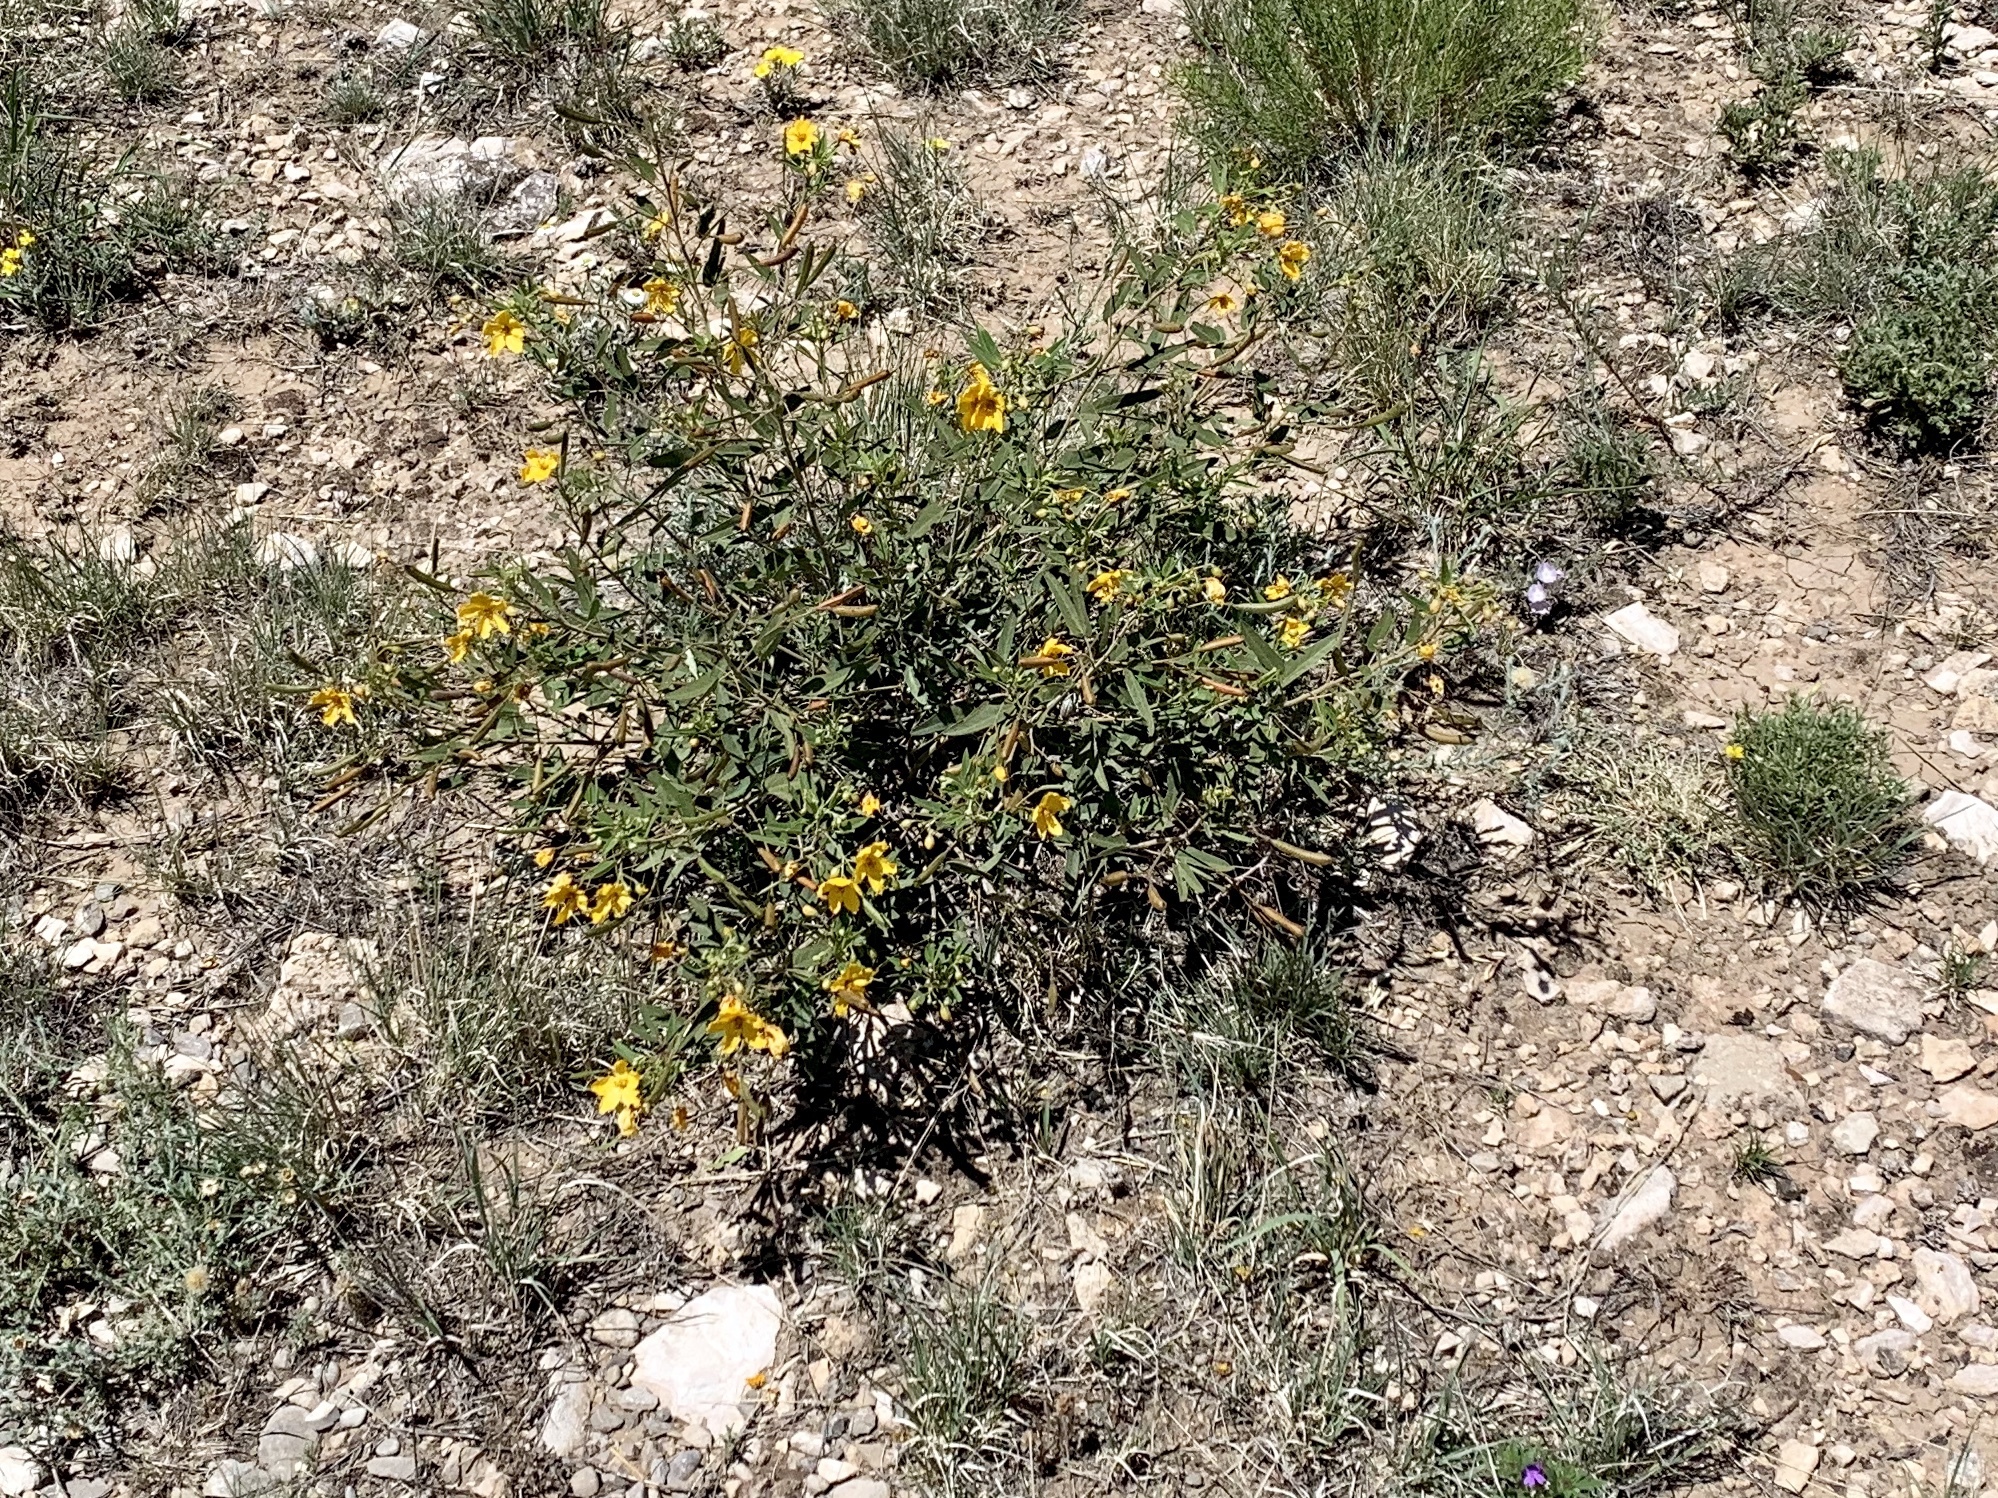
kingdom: Plantae
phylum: Tracheophyta
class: Magnoliopsida
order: Fabales
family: Fabaceae
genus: Senna
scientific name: Senna roemeriana
